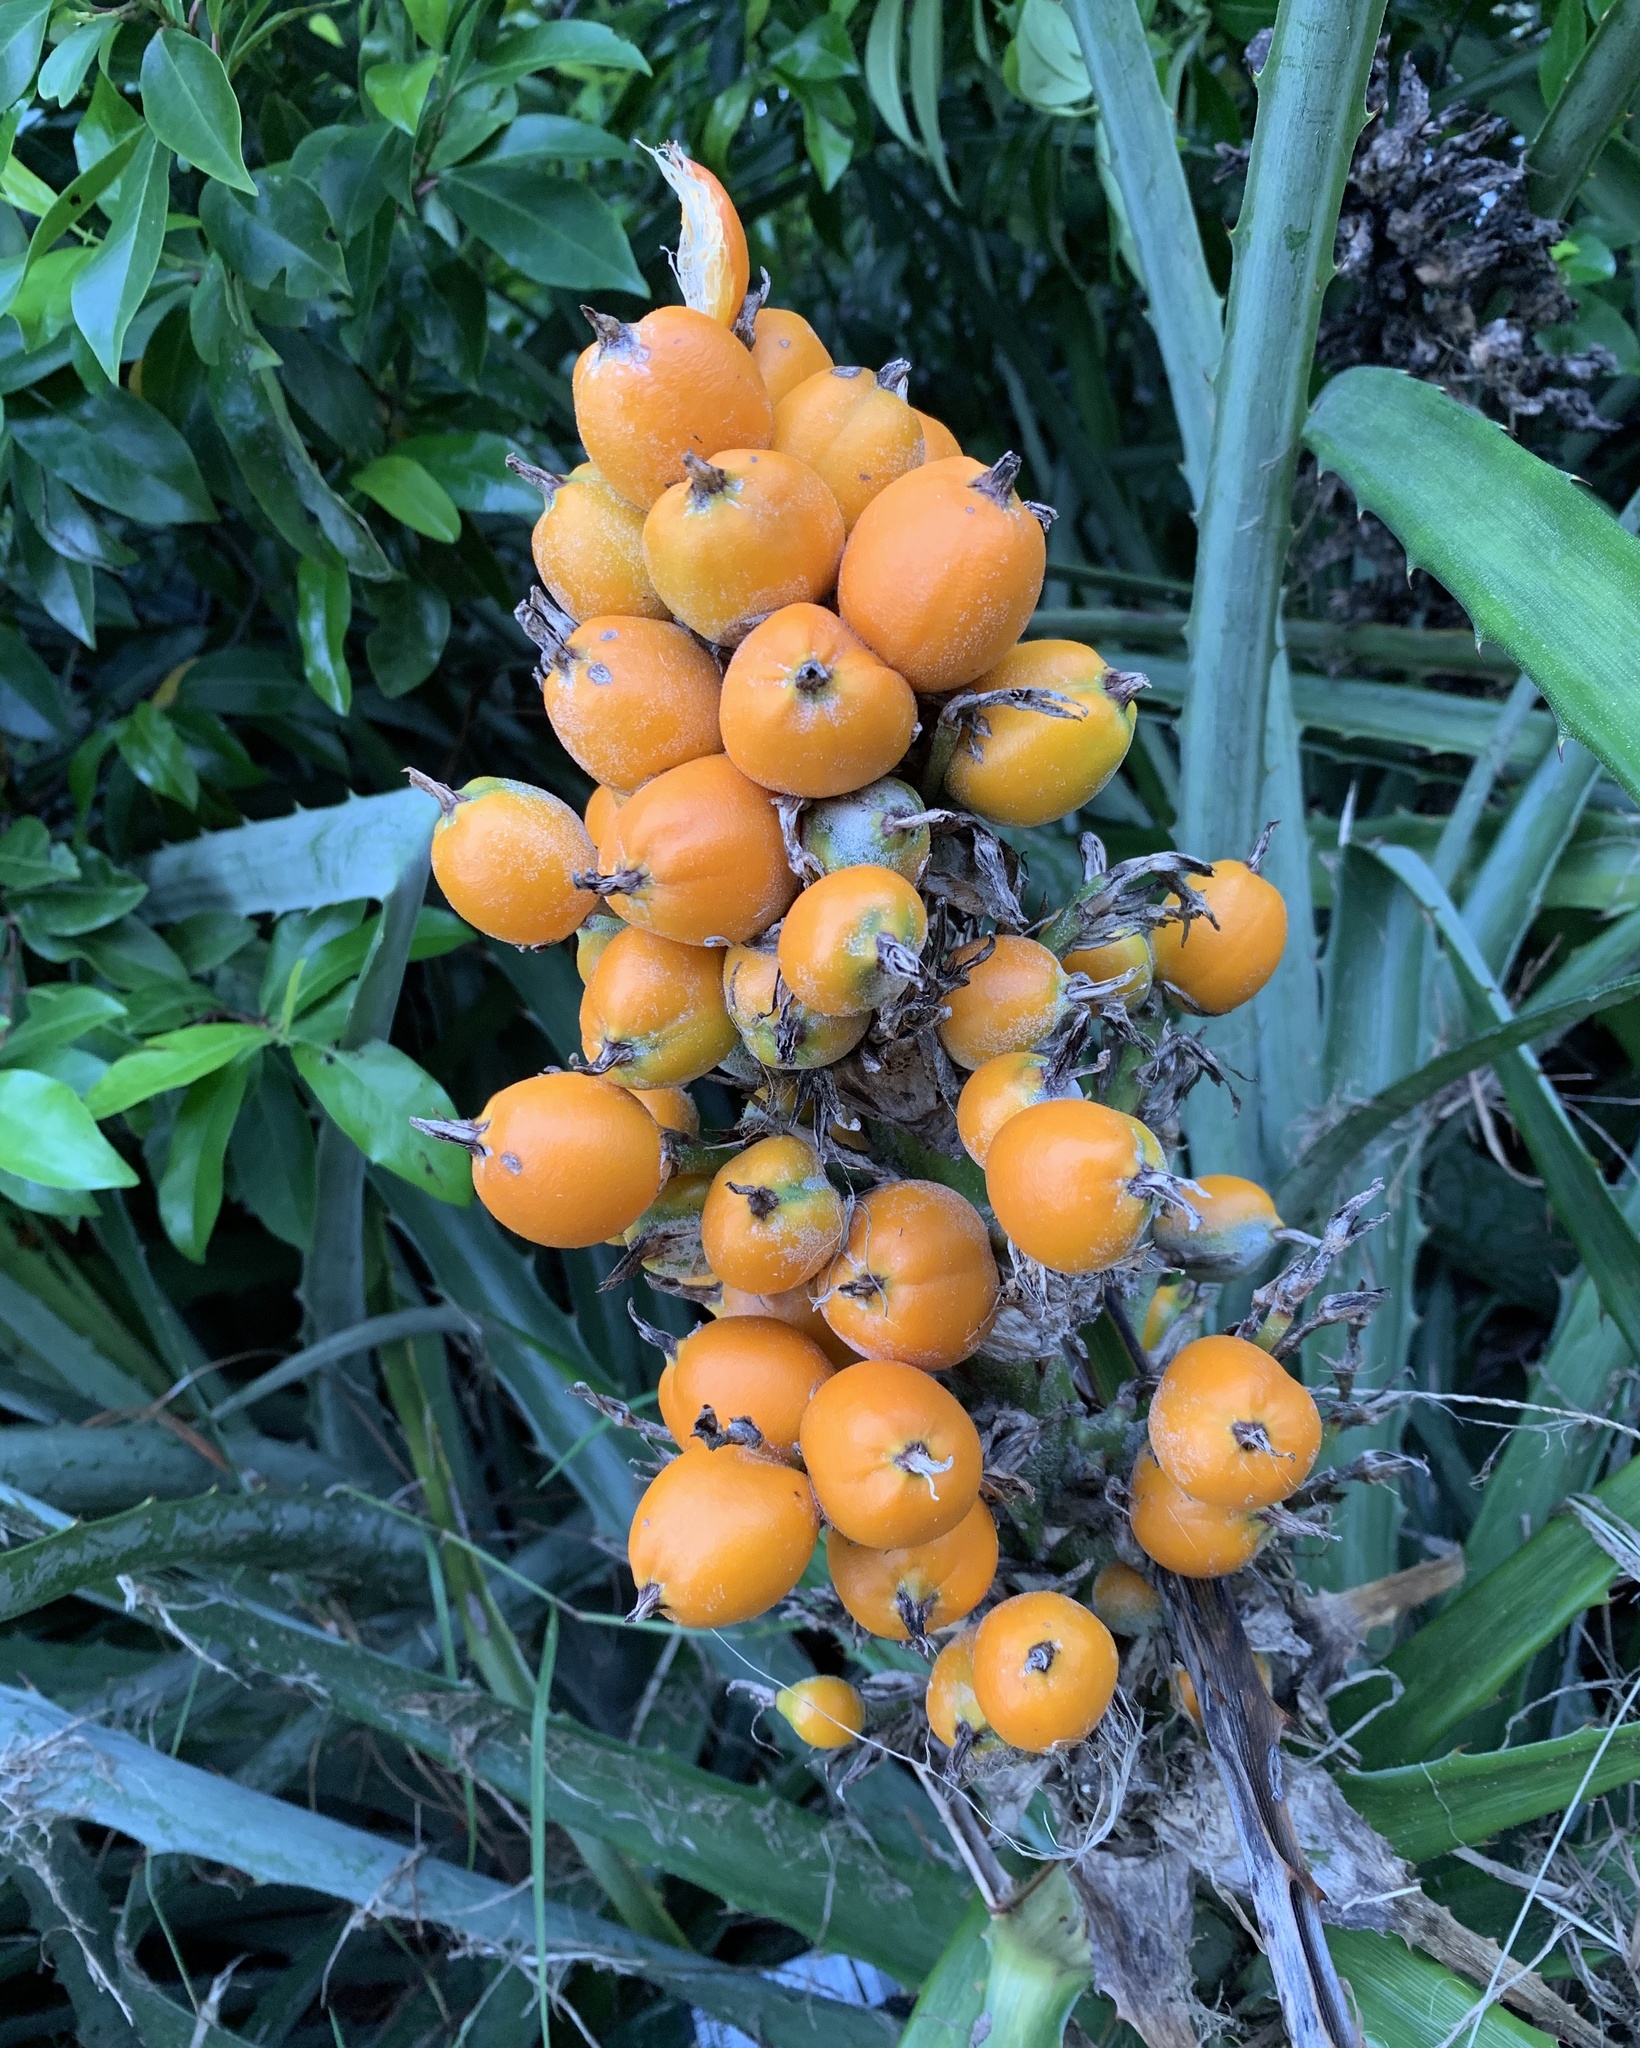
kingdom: Plantae
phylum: Tracheophyta
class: Liliopsida
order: Poales
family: Bromeliaceae
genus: Bromelia
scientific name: Bromelia pinguin
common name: Pinguin
